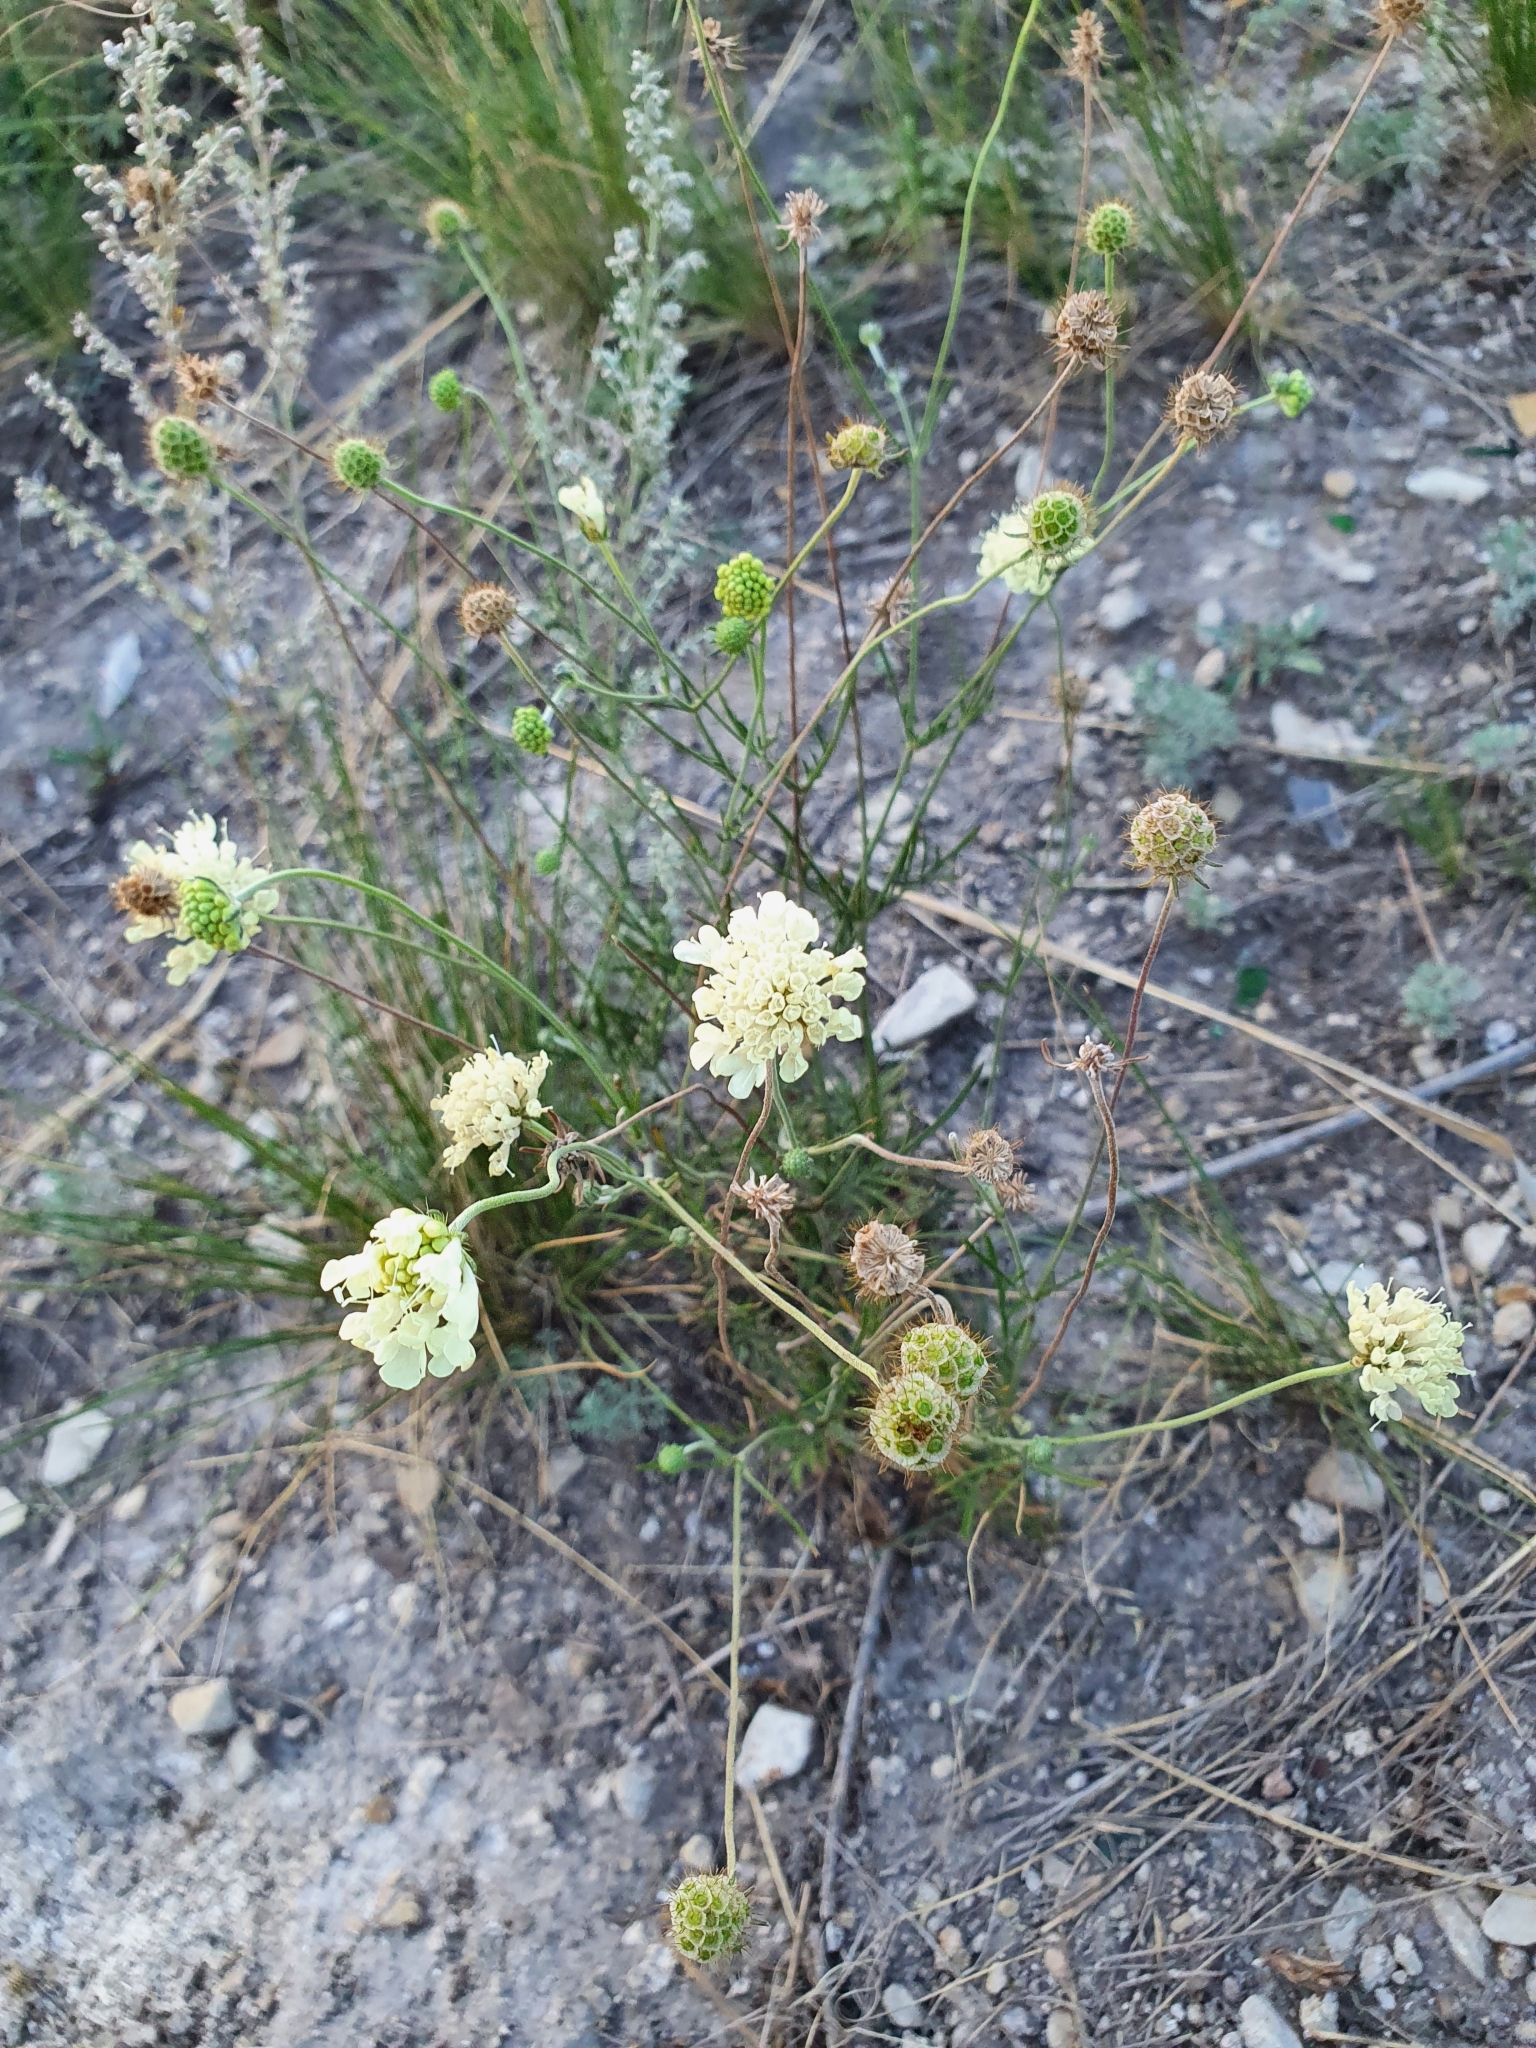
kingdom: Plantae
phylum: Tracheophyta
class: Magnoliopsida
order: Dipsacales
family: Caprifoliaceae
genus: Scabiosa
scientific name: Scabiosa ochroleuca
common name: Cream pincushions
